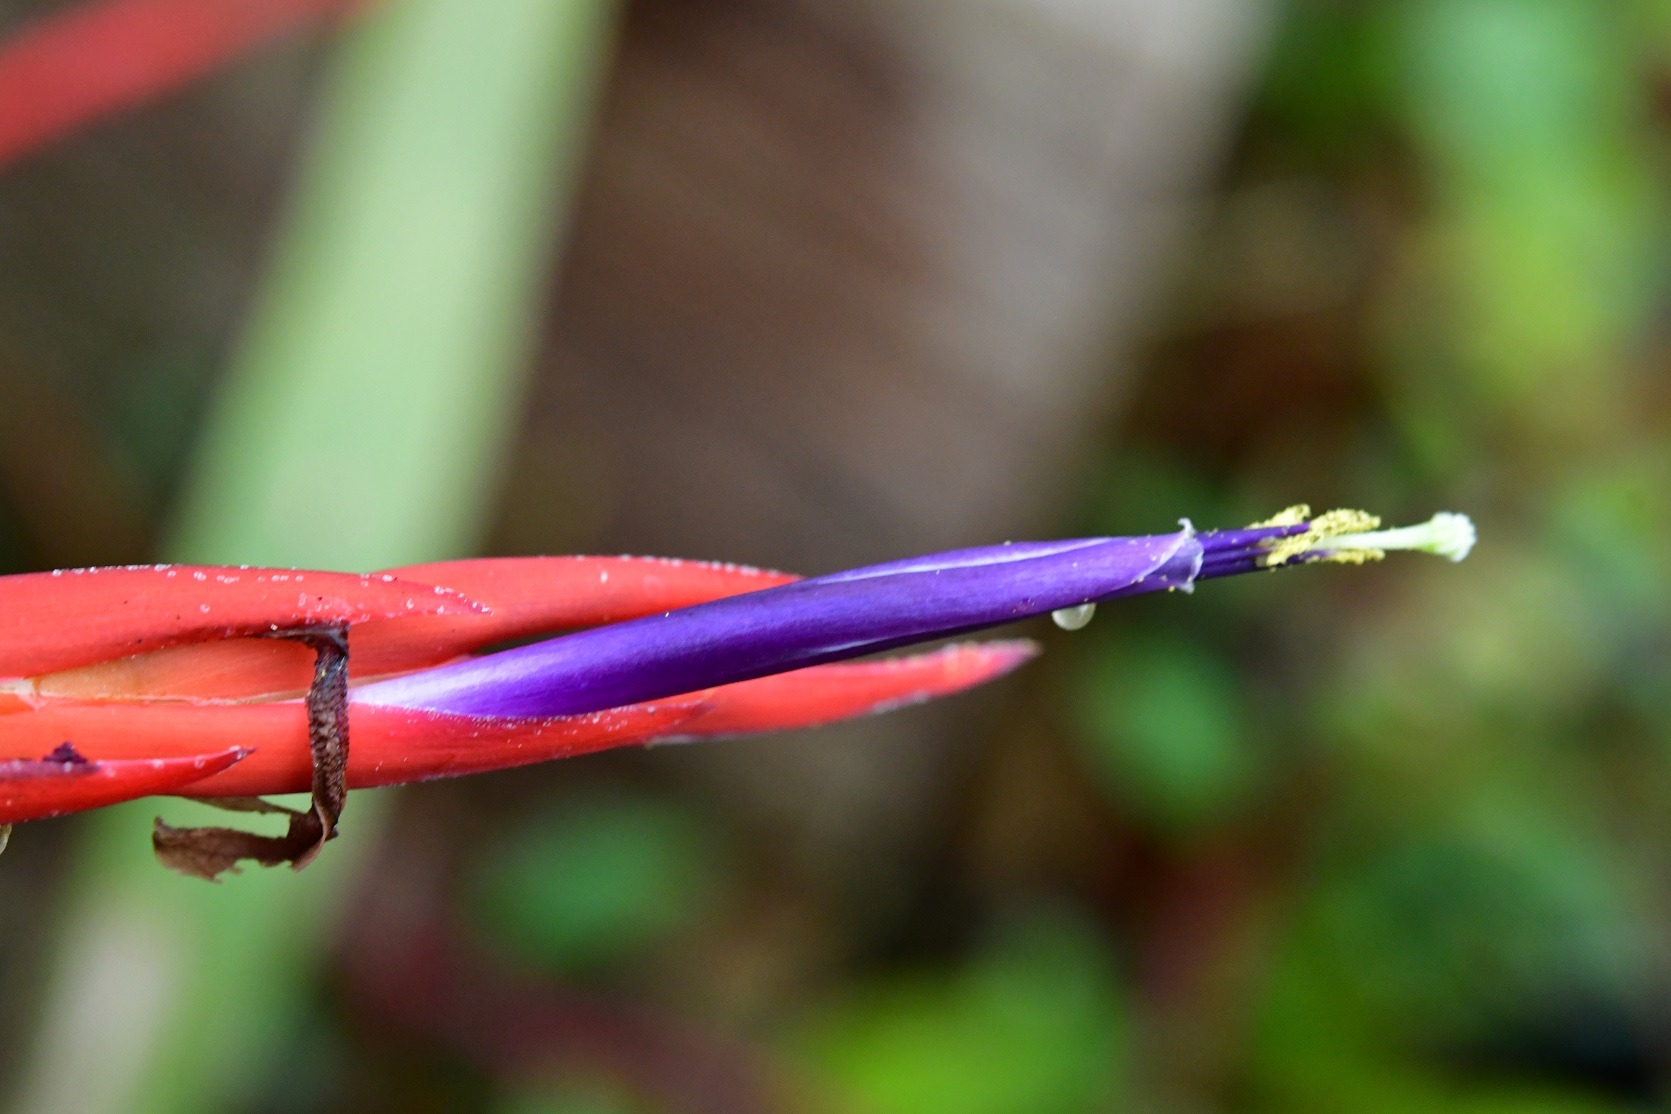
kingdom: Plantae
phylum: Tracheophyta
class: Liliopsida
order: Poales
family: Bromeliaceae
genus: Tillandsia
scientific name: Tillandsia flabellata
